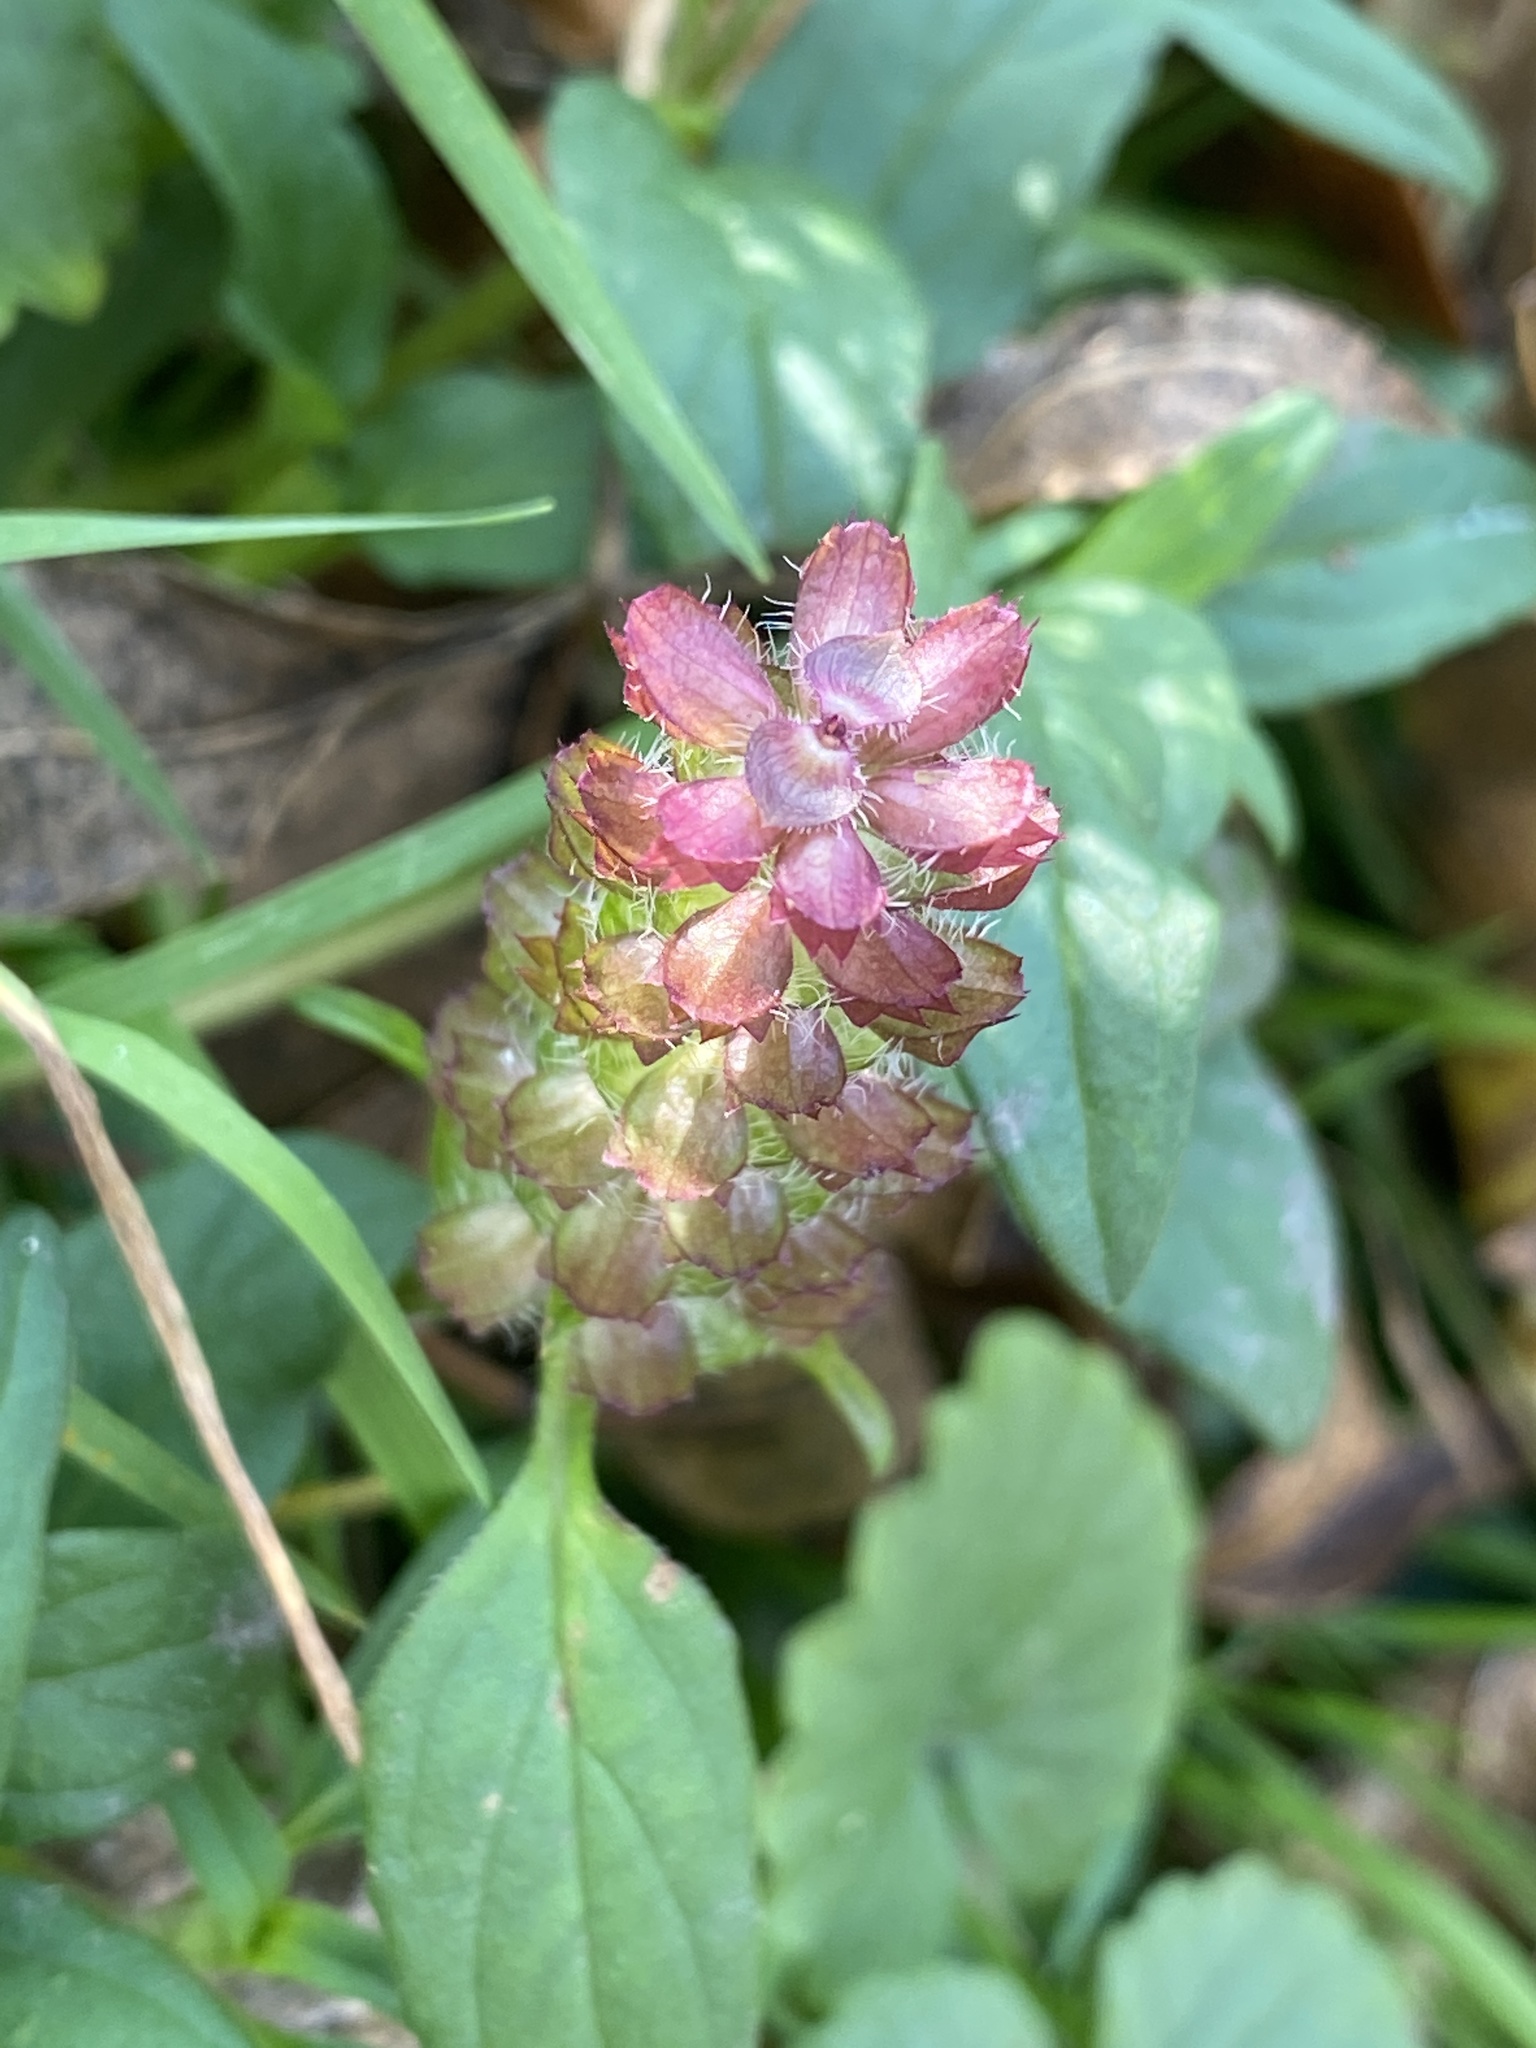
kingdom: Plantae
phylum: Tracheophyta
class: Magnoliopsida
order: Lamiales
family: Lamiaceae
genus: Prunella
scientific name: Prunella vulgaris
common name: Heal-all
